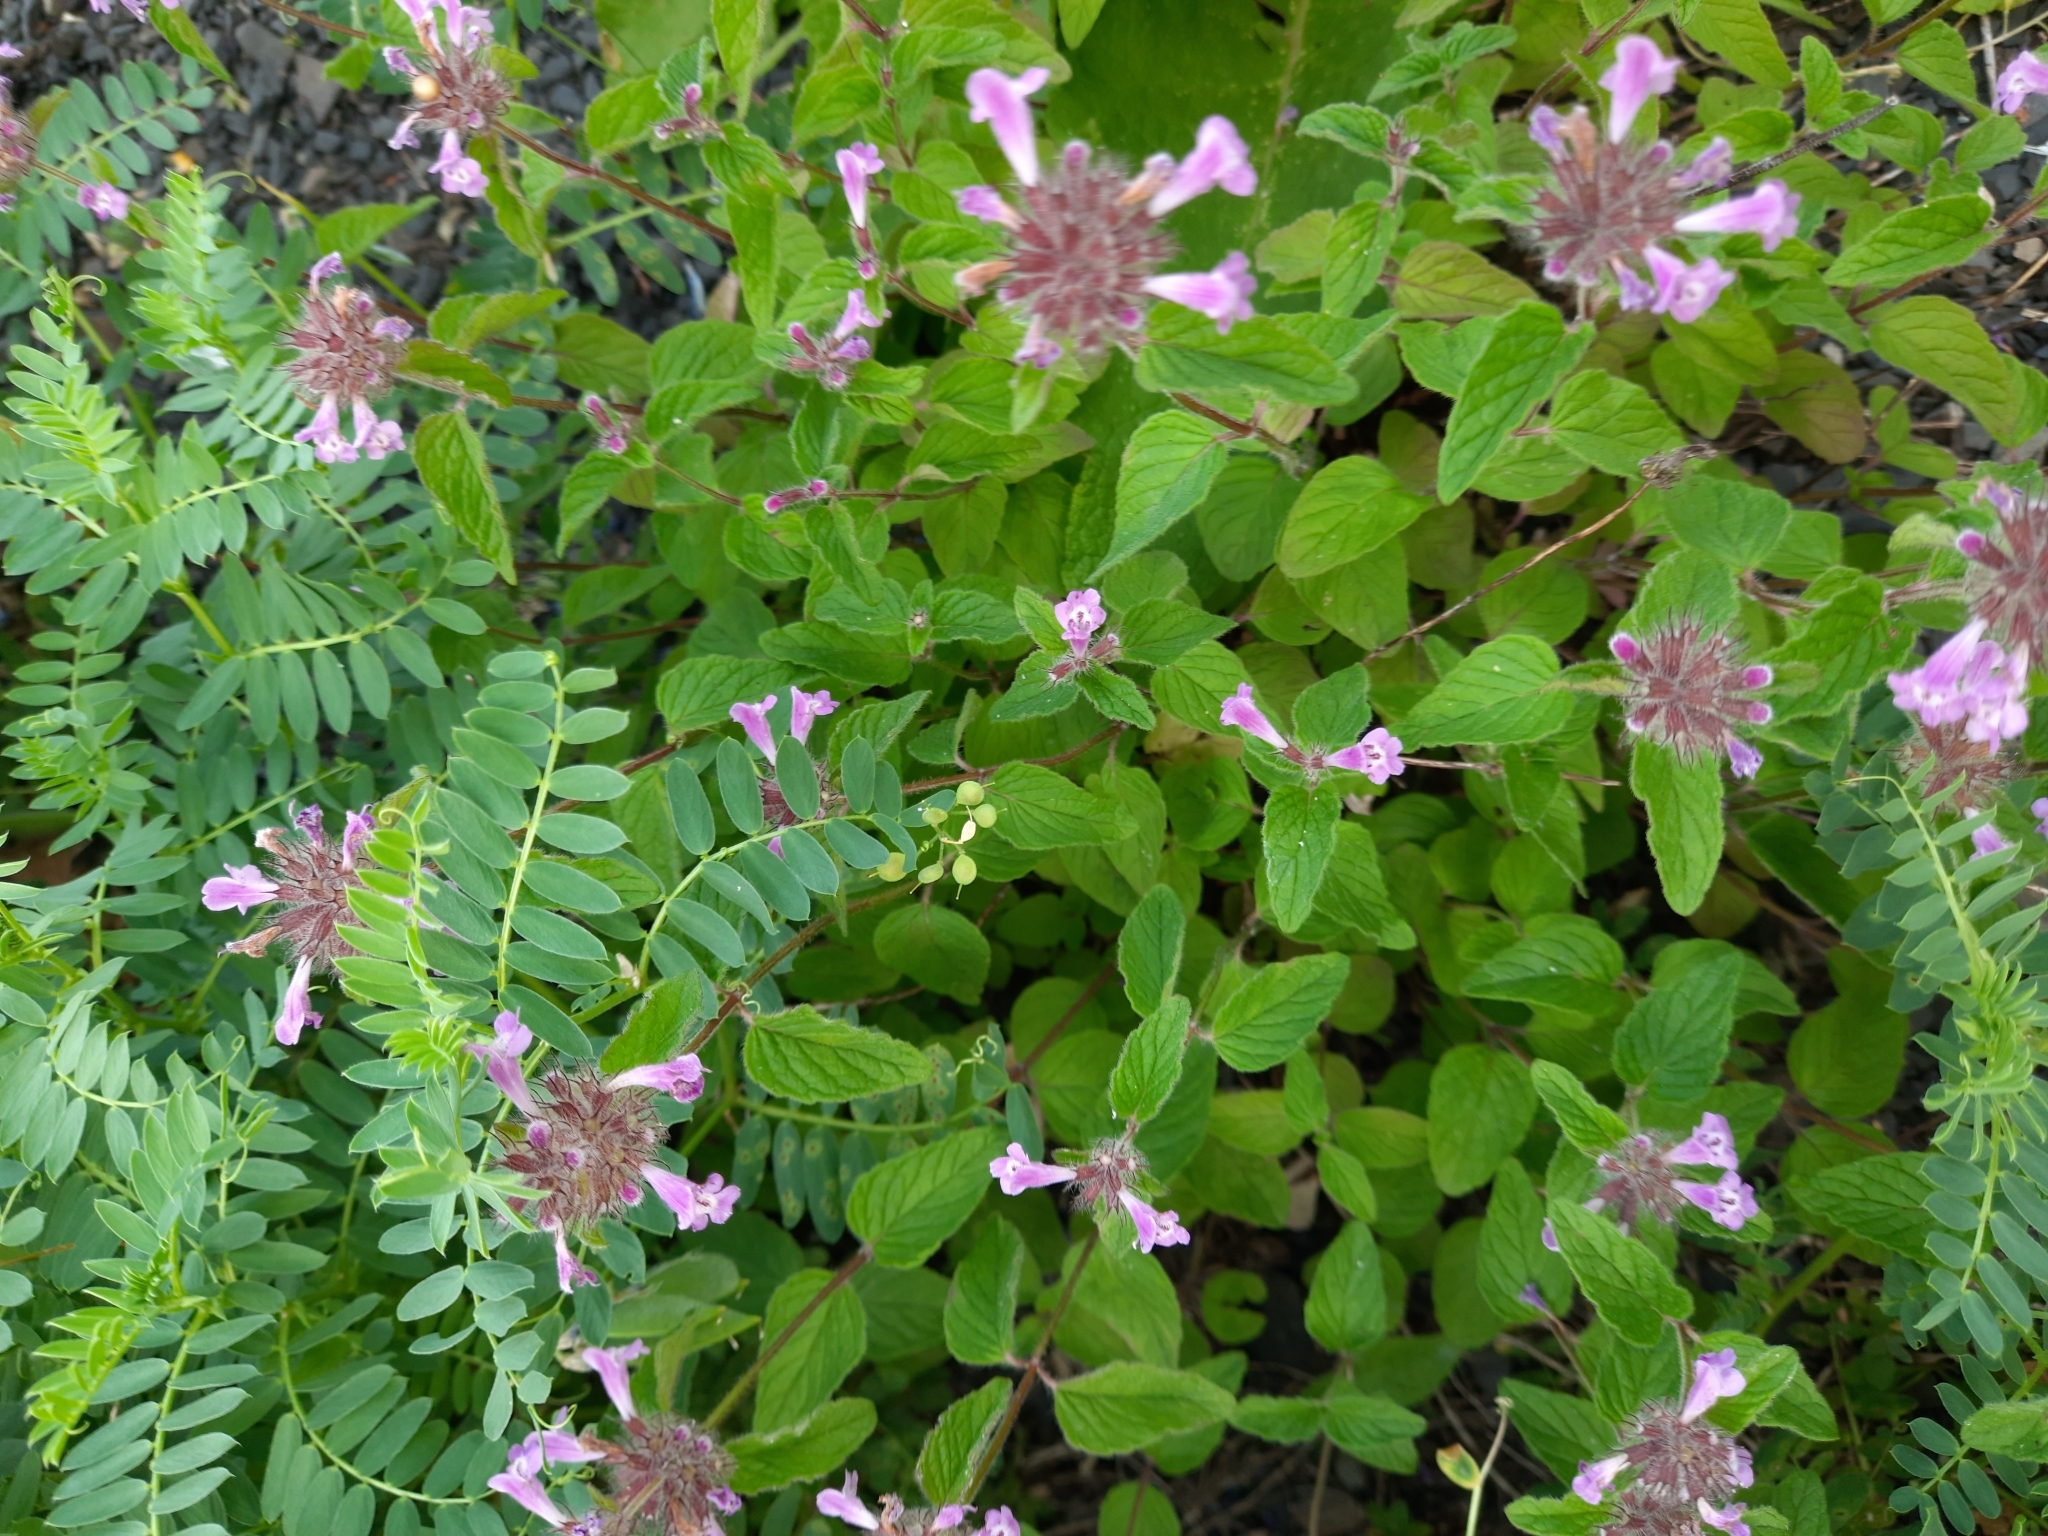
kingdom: Plantae
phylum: Tracheophyta
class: Magnoliopsida
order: Lamiales
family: Lamiaceae
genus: Clinopodium
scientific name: Clinopodium caucasicum
